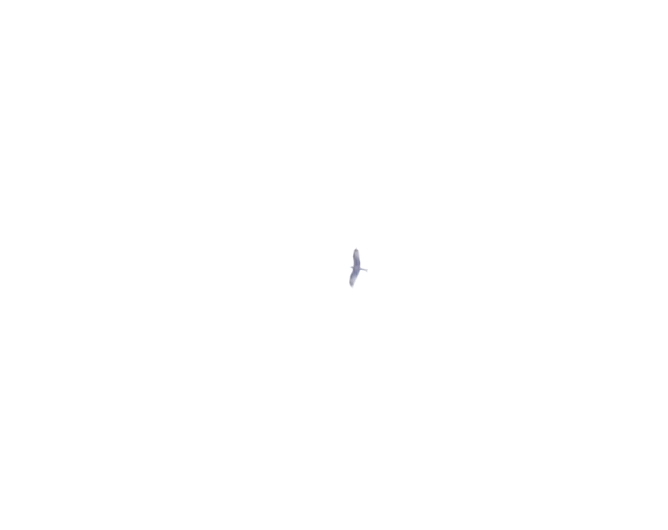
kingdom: Animalia
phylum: Chordata
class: Aves
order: Accipitriformes
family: Accipitridae
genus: Milvus
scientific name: Milvus milvus
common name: Red kite
